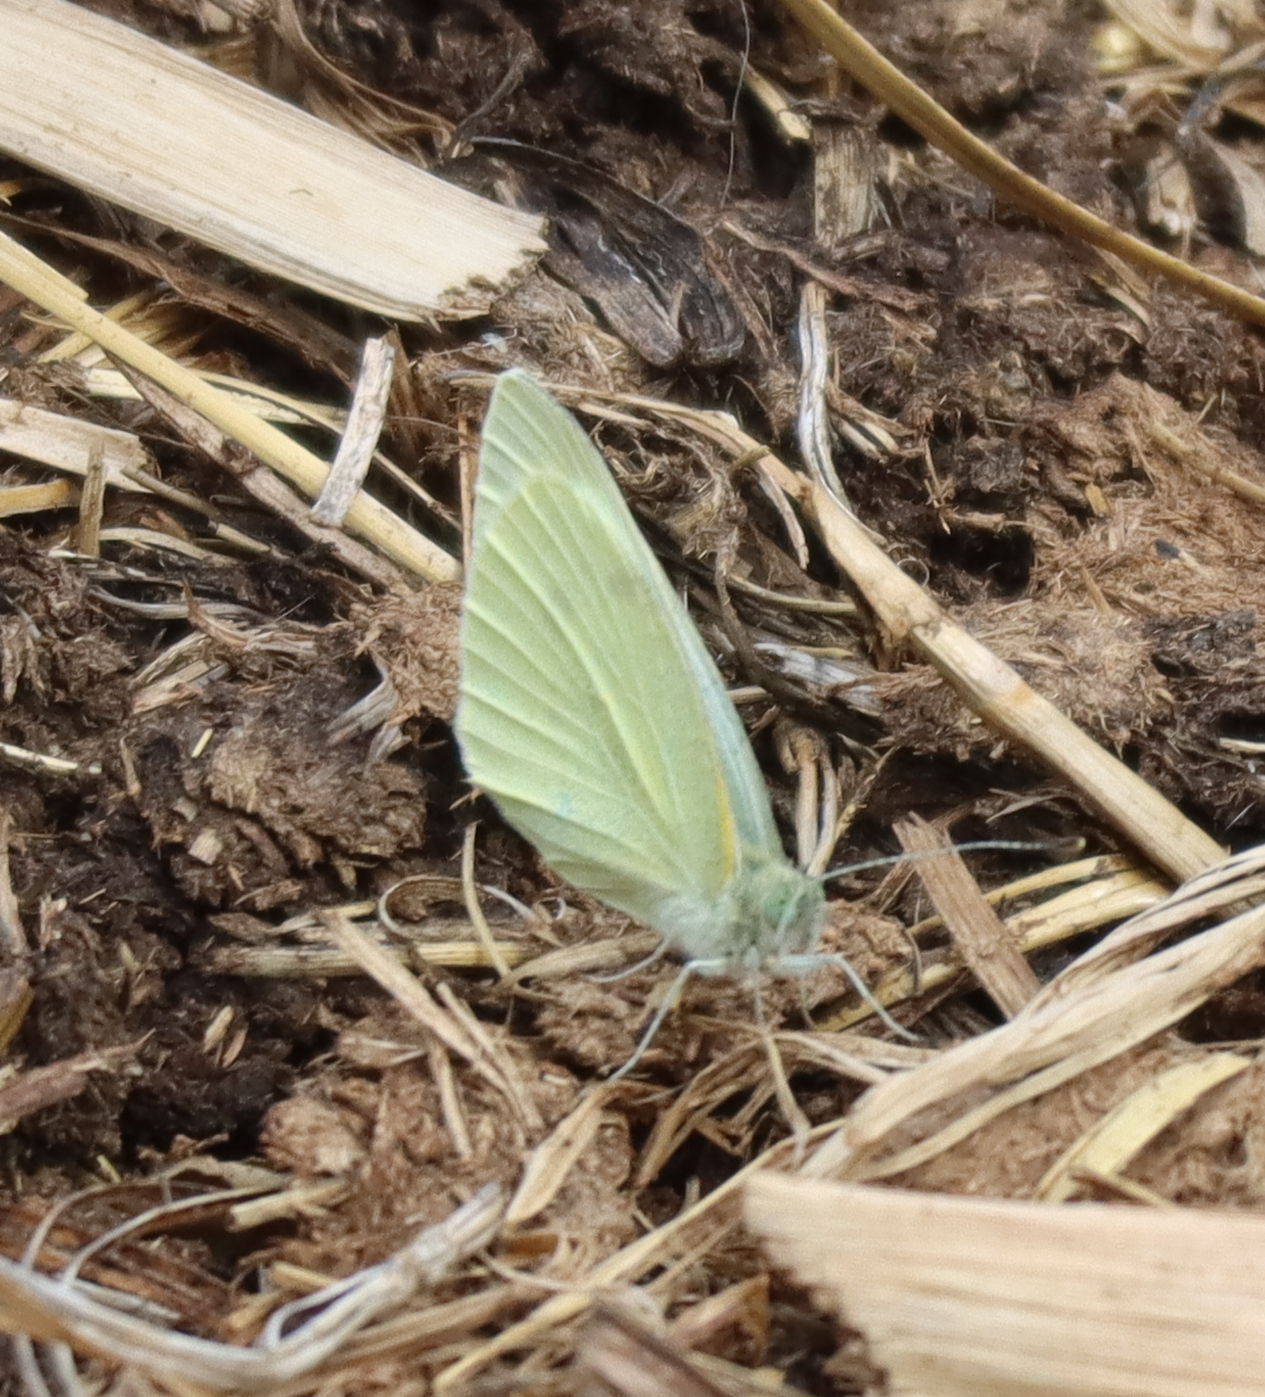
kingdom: Animalia
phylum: Arthropoda
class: Insecta
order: Lepidoptera
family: Pieridae
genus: Pieris
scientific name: Pieris oleracea
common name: Mustard white
